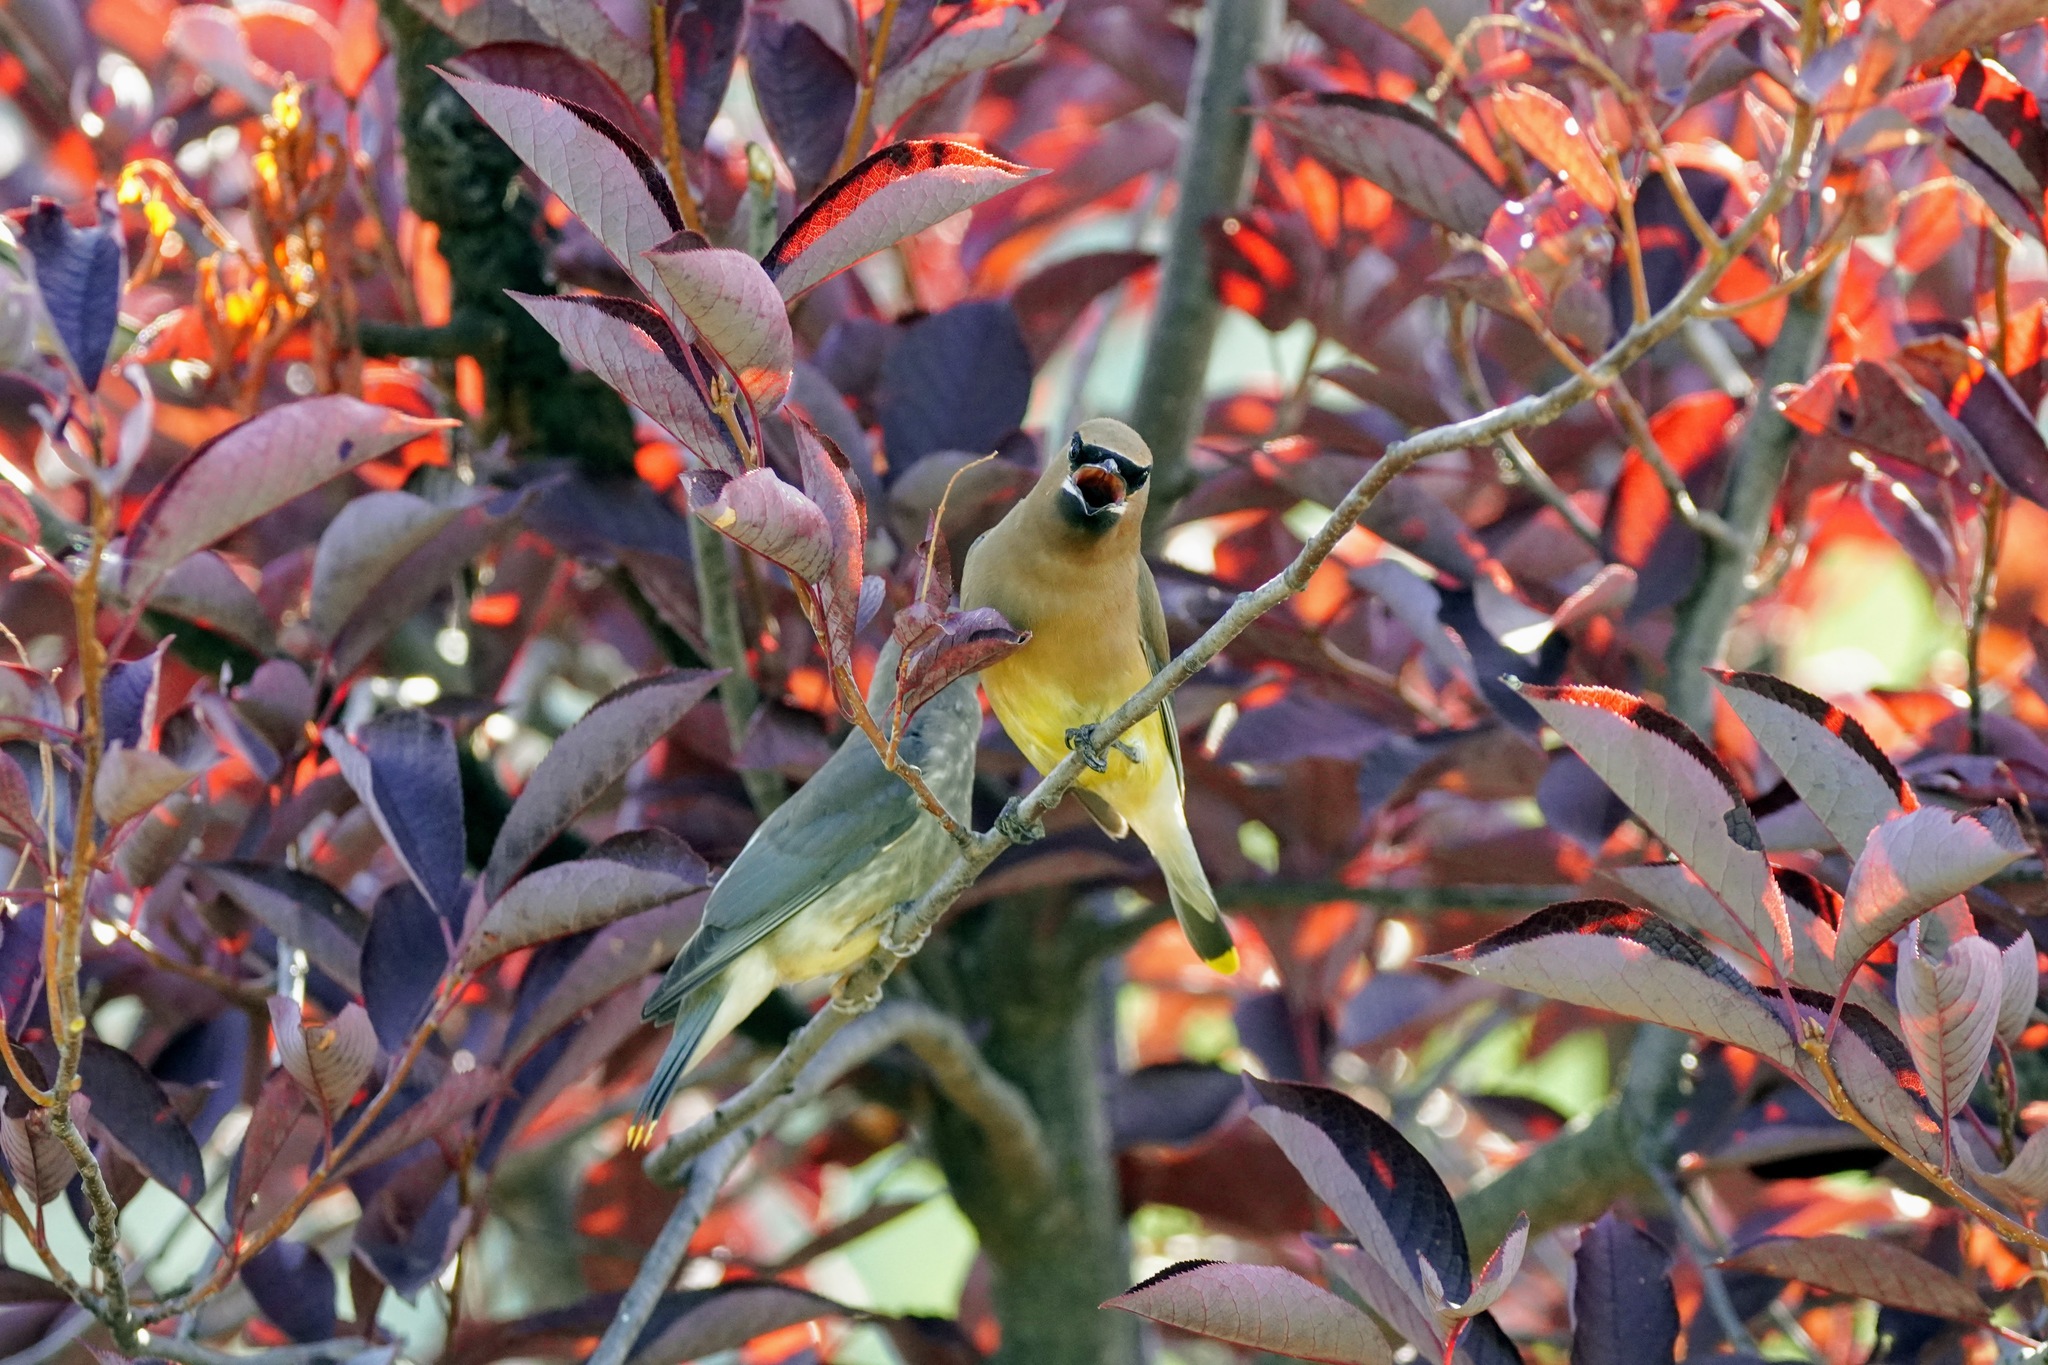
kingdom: Animalia
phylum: Chordata
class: Aves
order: Passeriformes
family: Bombycillidae
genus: Bombycilla
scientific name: Bombycilla cedrorum
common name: Cedar waxwing
